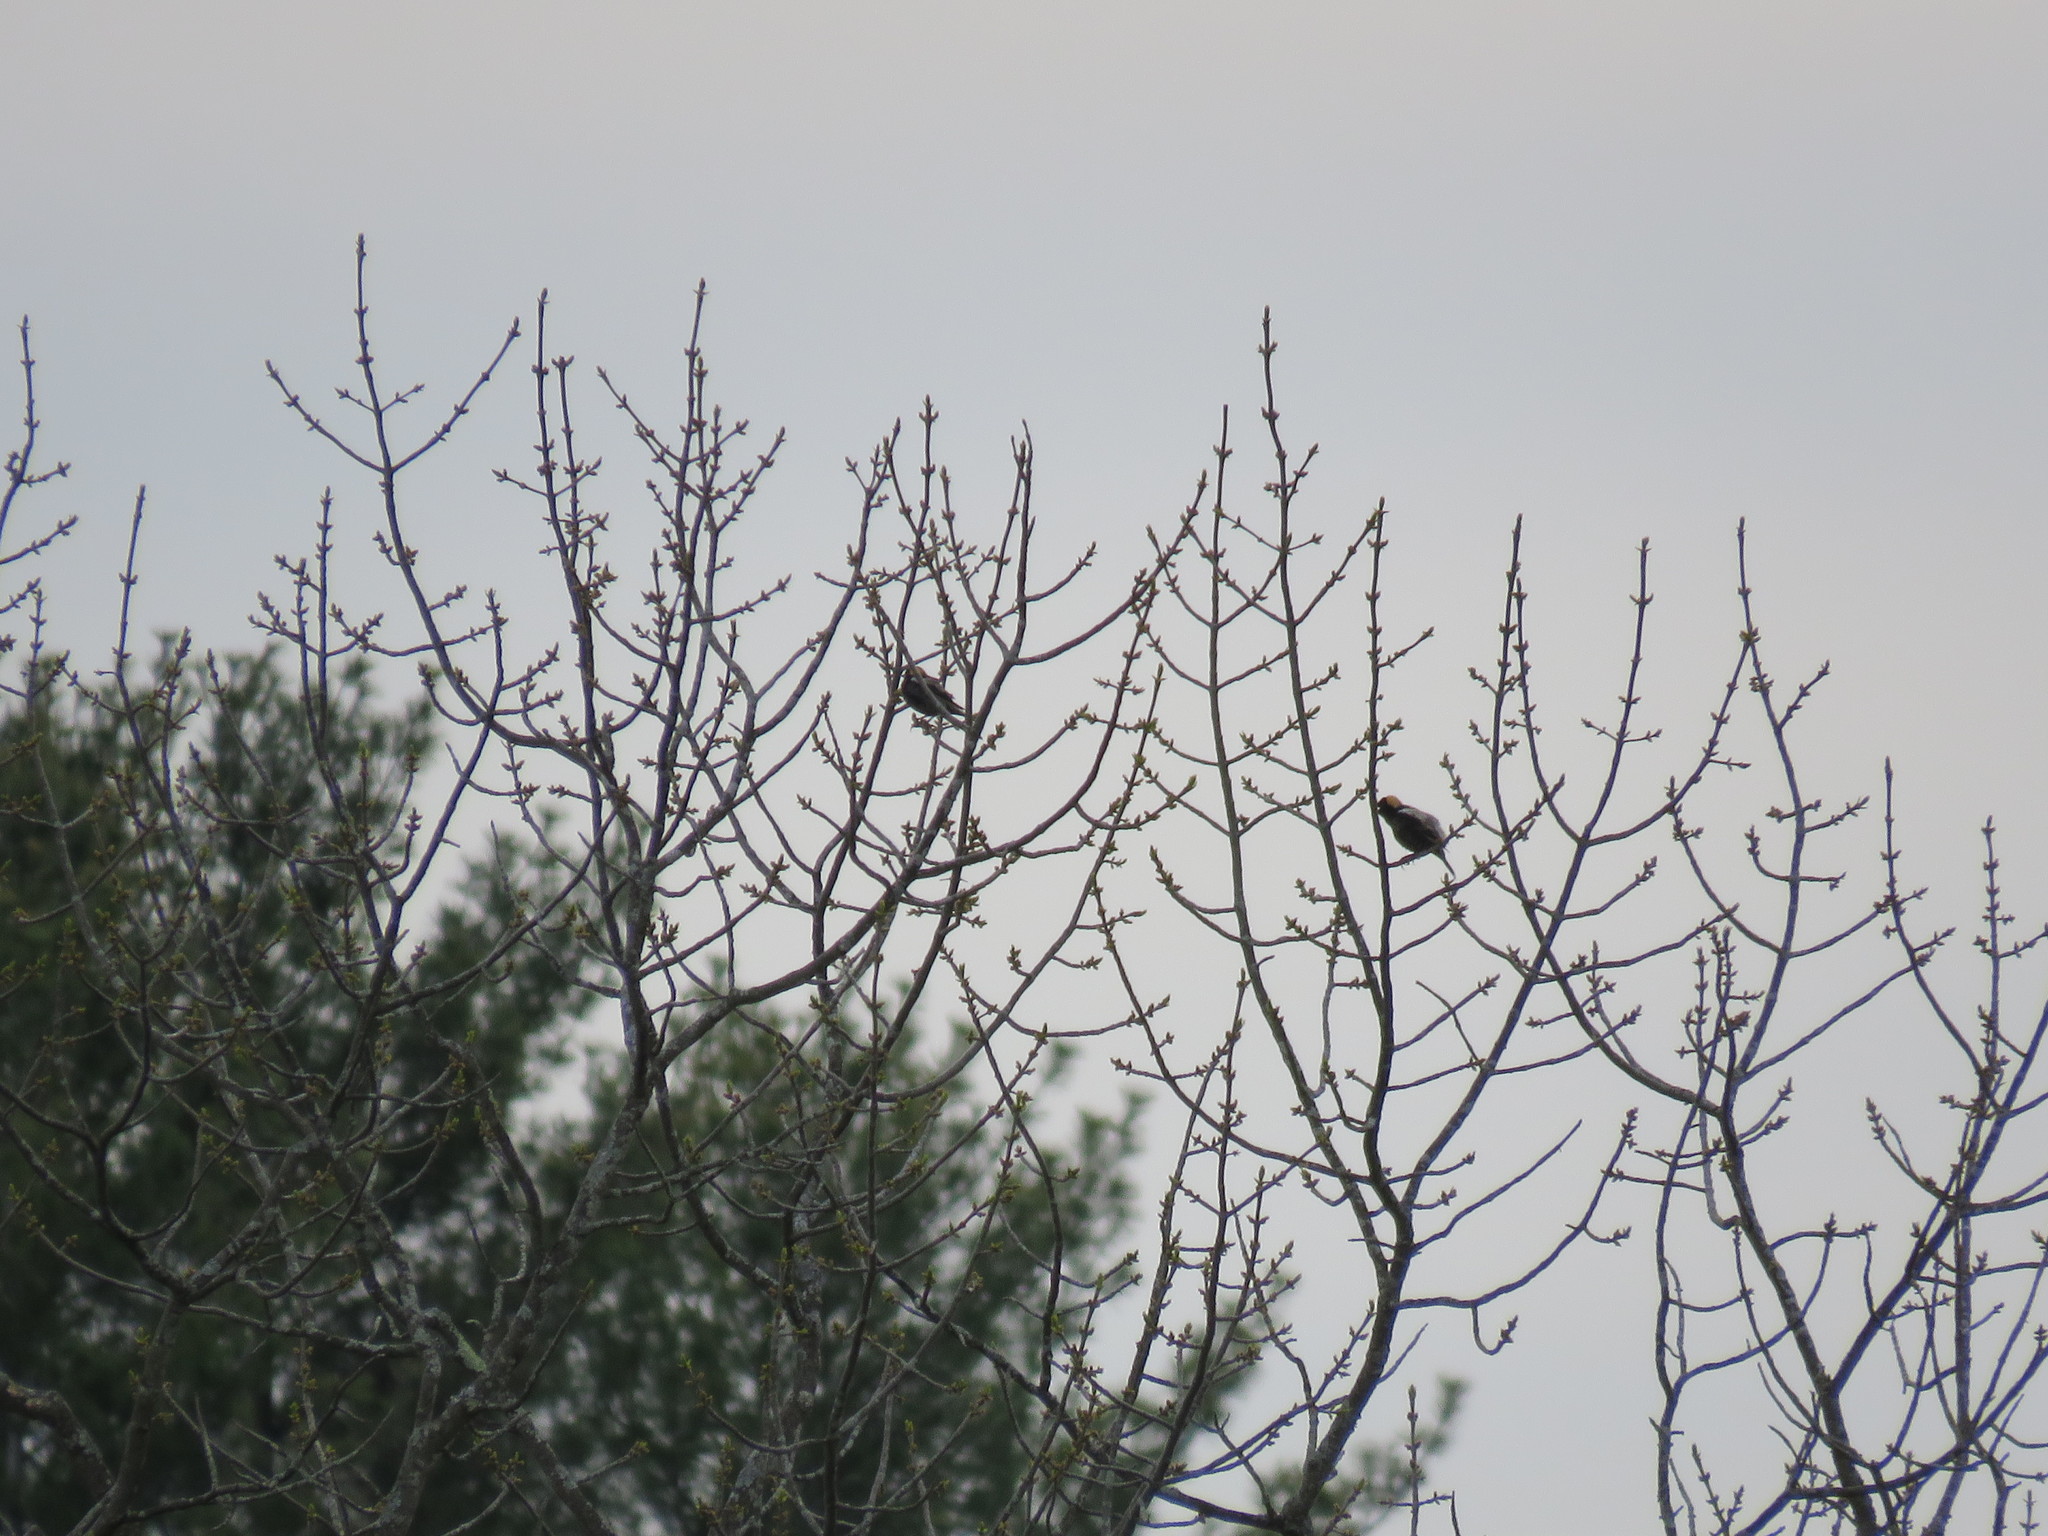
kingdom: Animalia
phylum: Chordata
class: Aves
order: Passeriformes
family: Icteridae
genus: Dolichonyx
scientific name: Dolichonyx oryzivorus
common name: Bobolink
